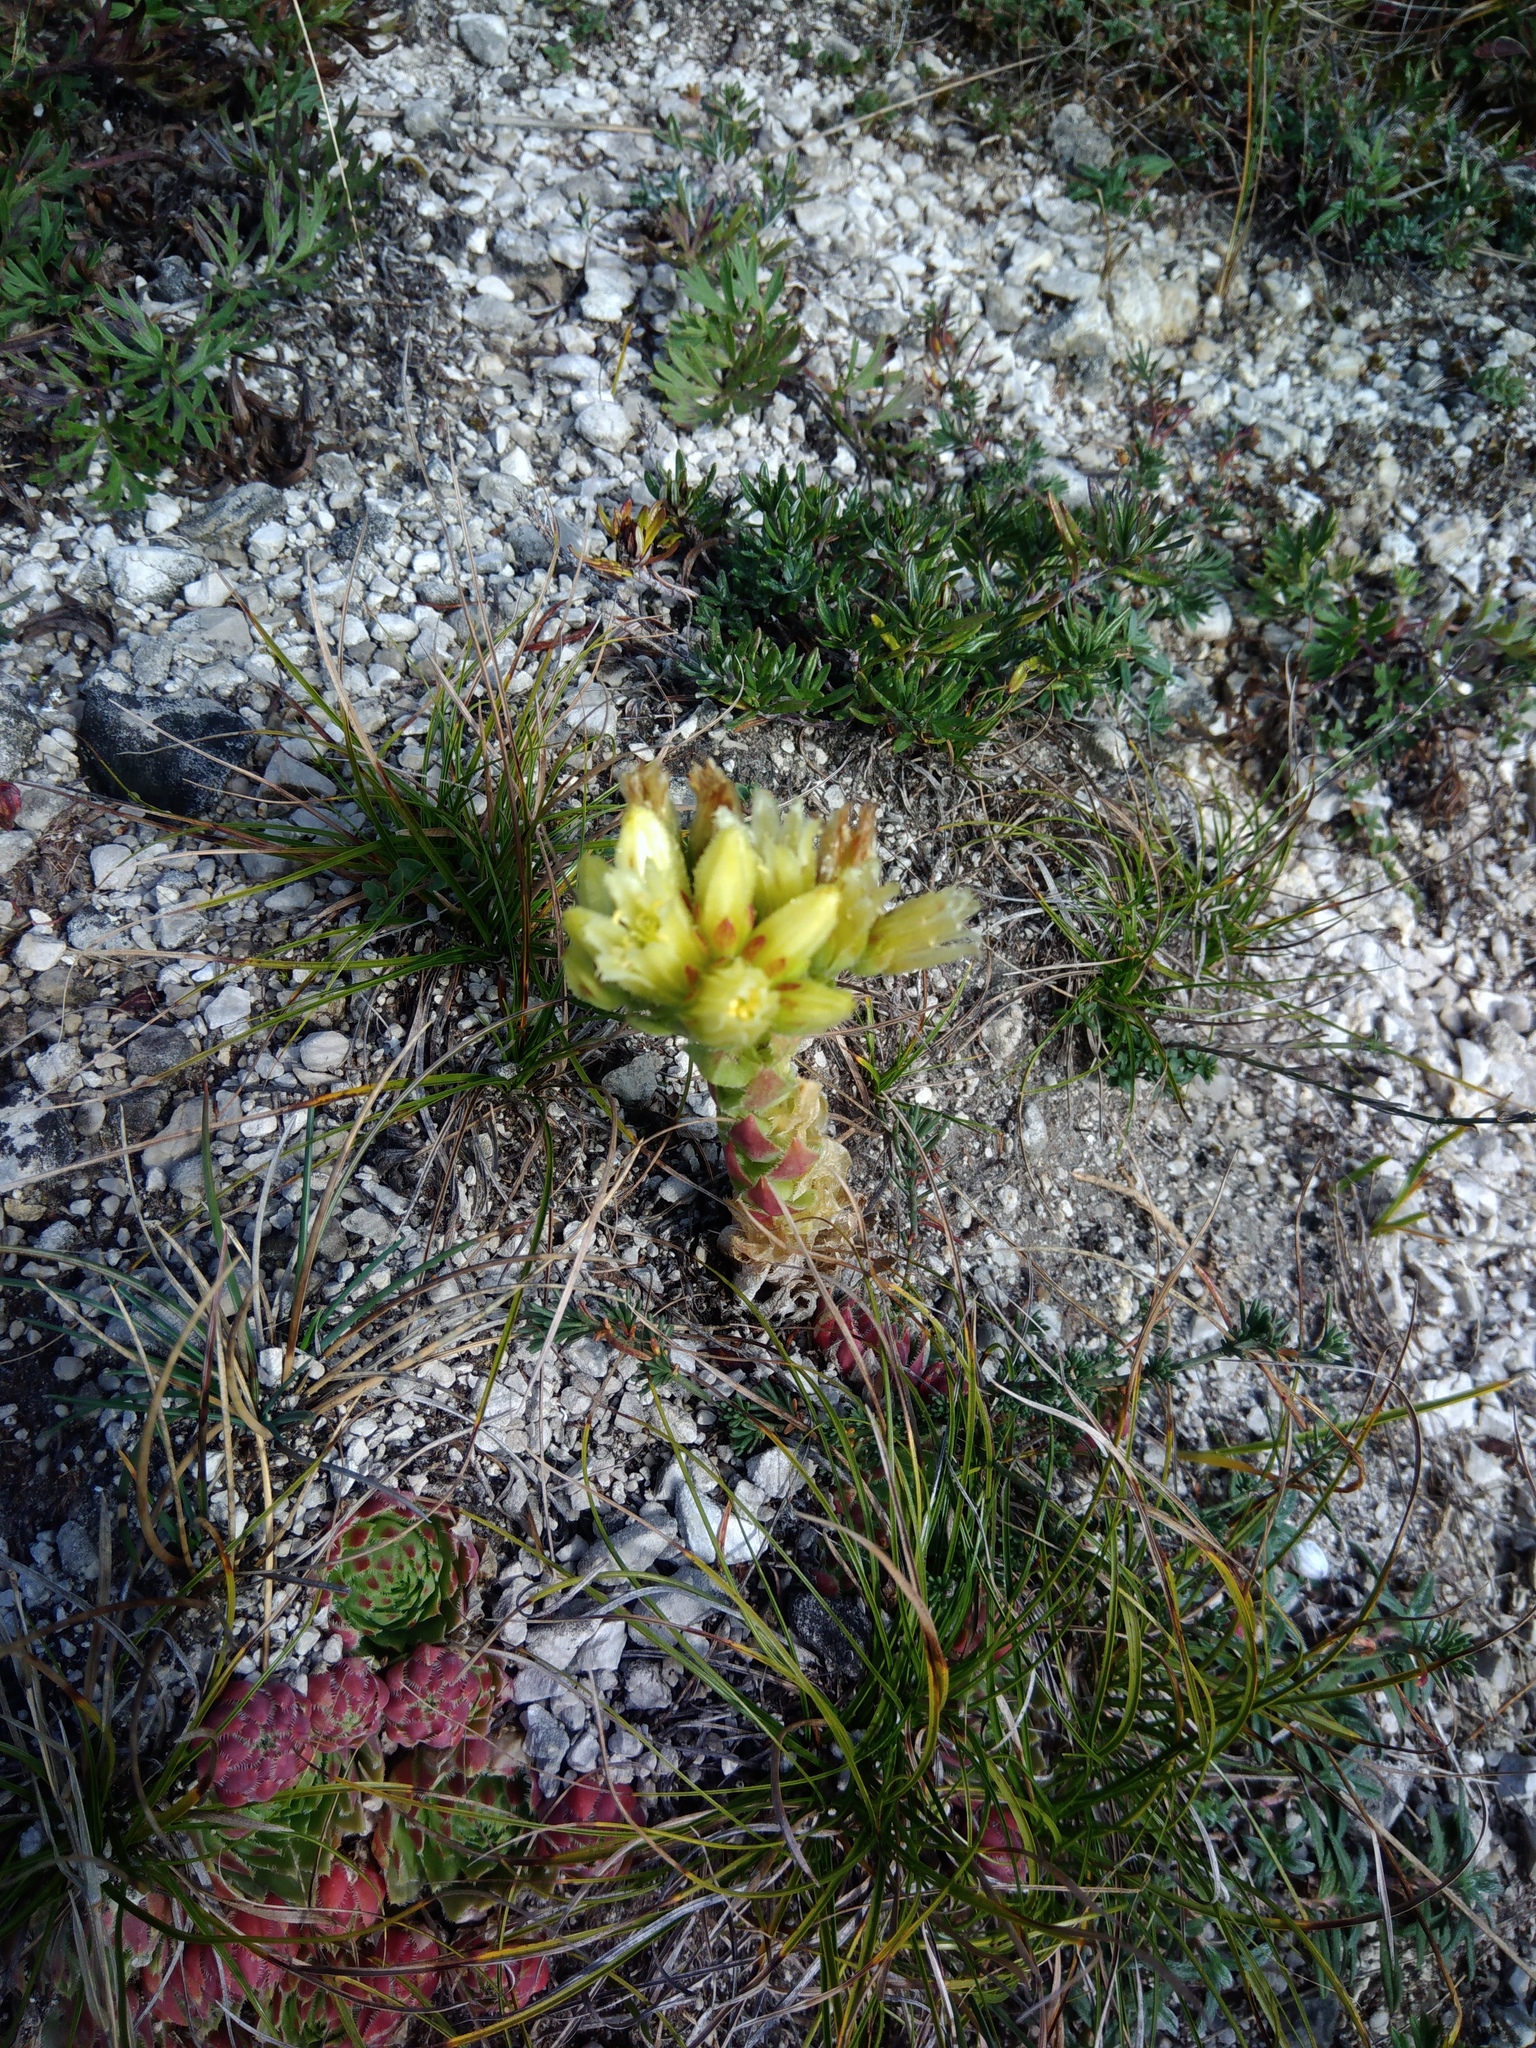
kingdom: Plantae
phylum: Tracheophyta
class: Magnoliopsida
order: Saxifragales
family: Crassulaceae
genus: Sempervivum
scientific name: Sempervivum globiferum
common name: Rolling hen-and-chicks
